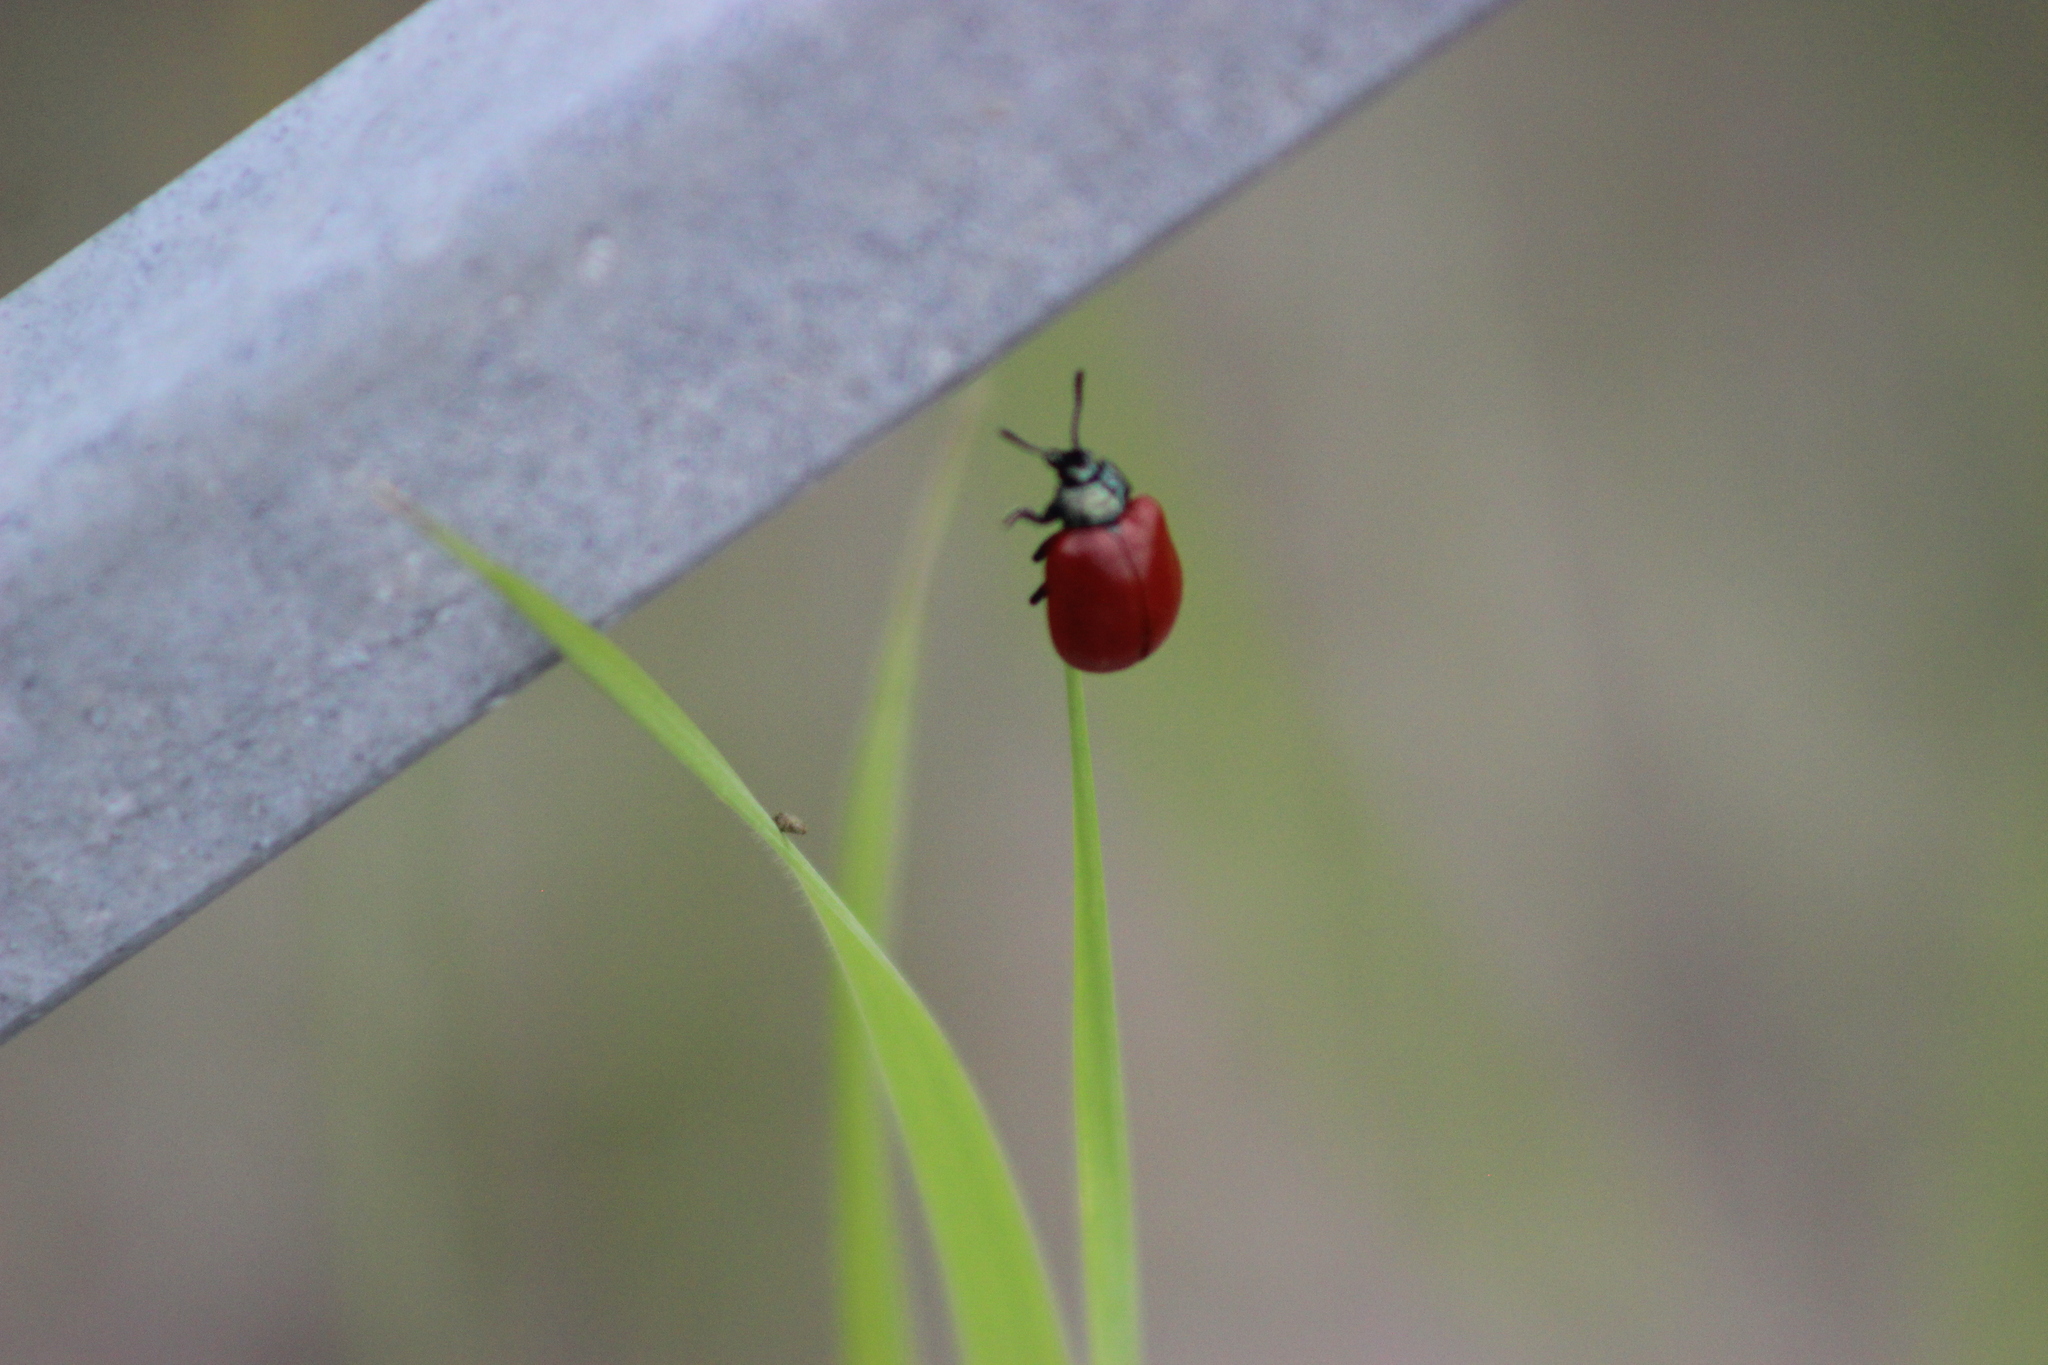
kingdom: Animalia
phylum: Arthropoda
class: Insecta
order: Coleoptera
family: Chrysomelidae
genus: Chrysomela
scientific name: Chrysomela populi
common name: Red poplar leaf beetle
